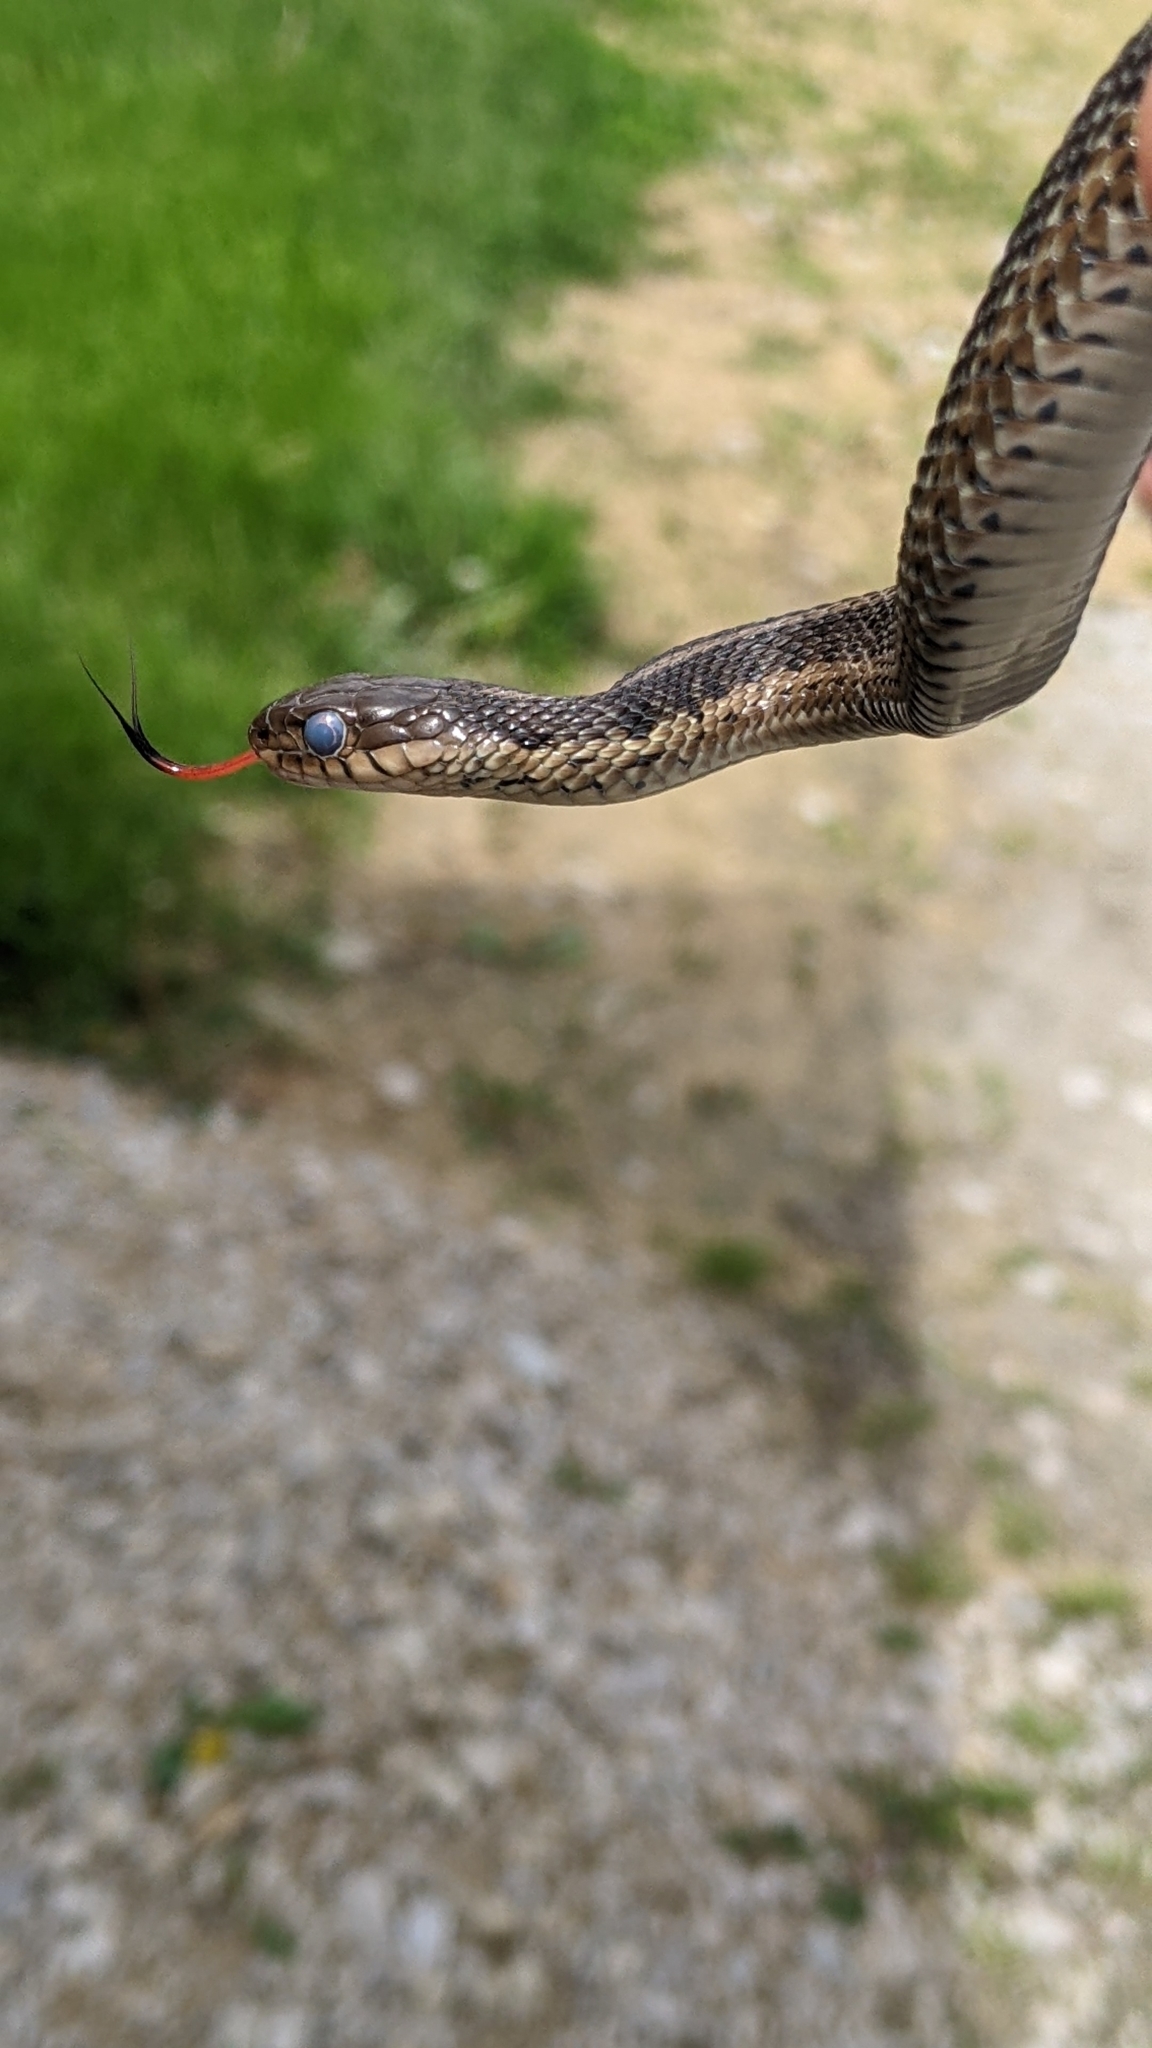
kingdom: Animalia
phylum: Chordata
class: Squamata
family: Colubridae
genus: Thamnophis
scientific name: Thamnophis sirtalis
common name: Common garter snake
